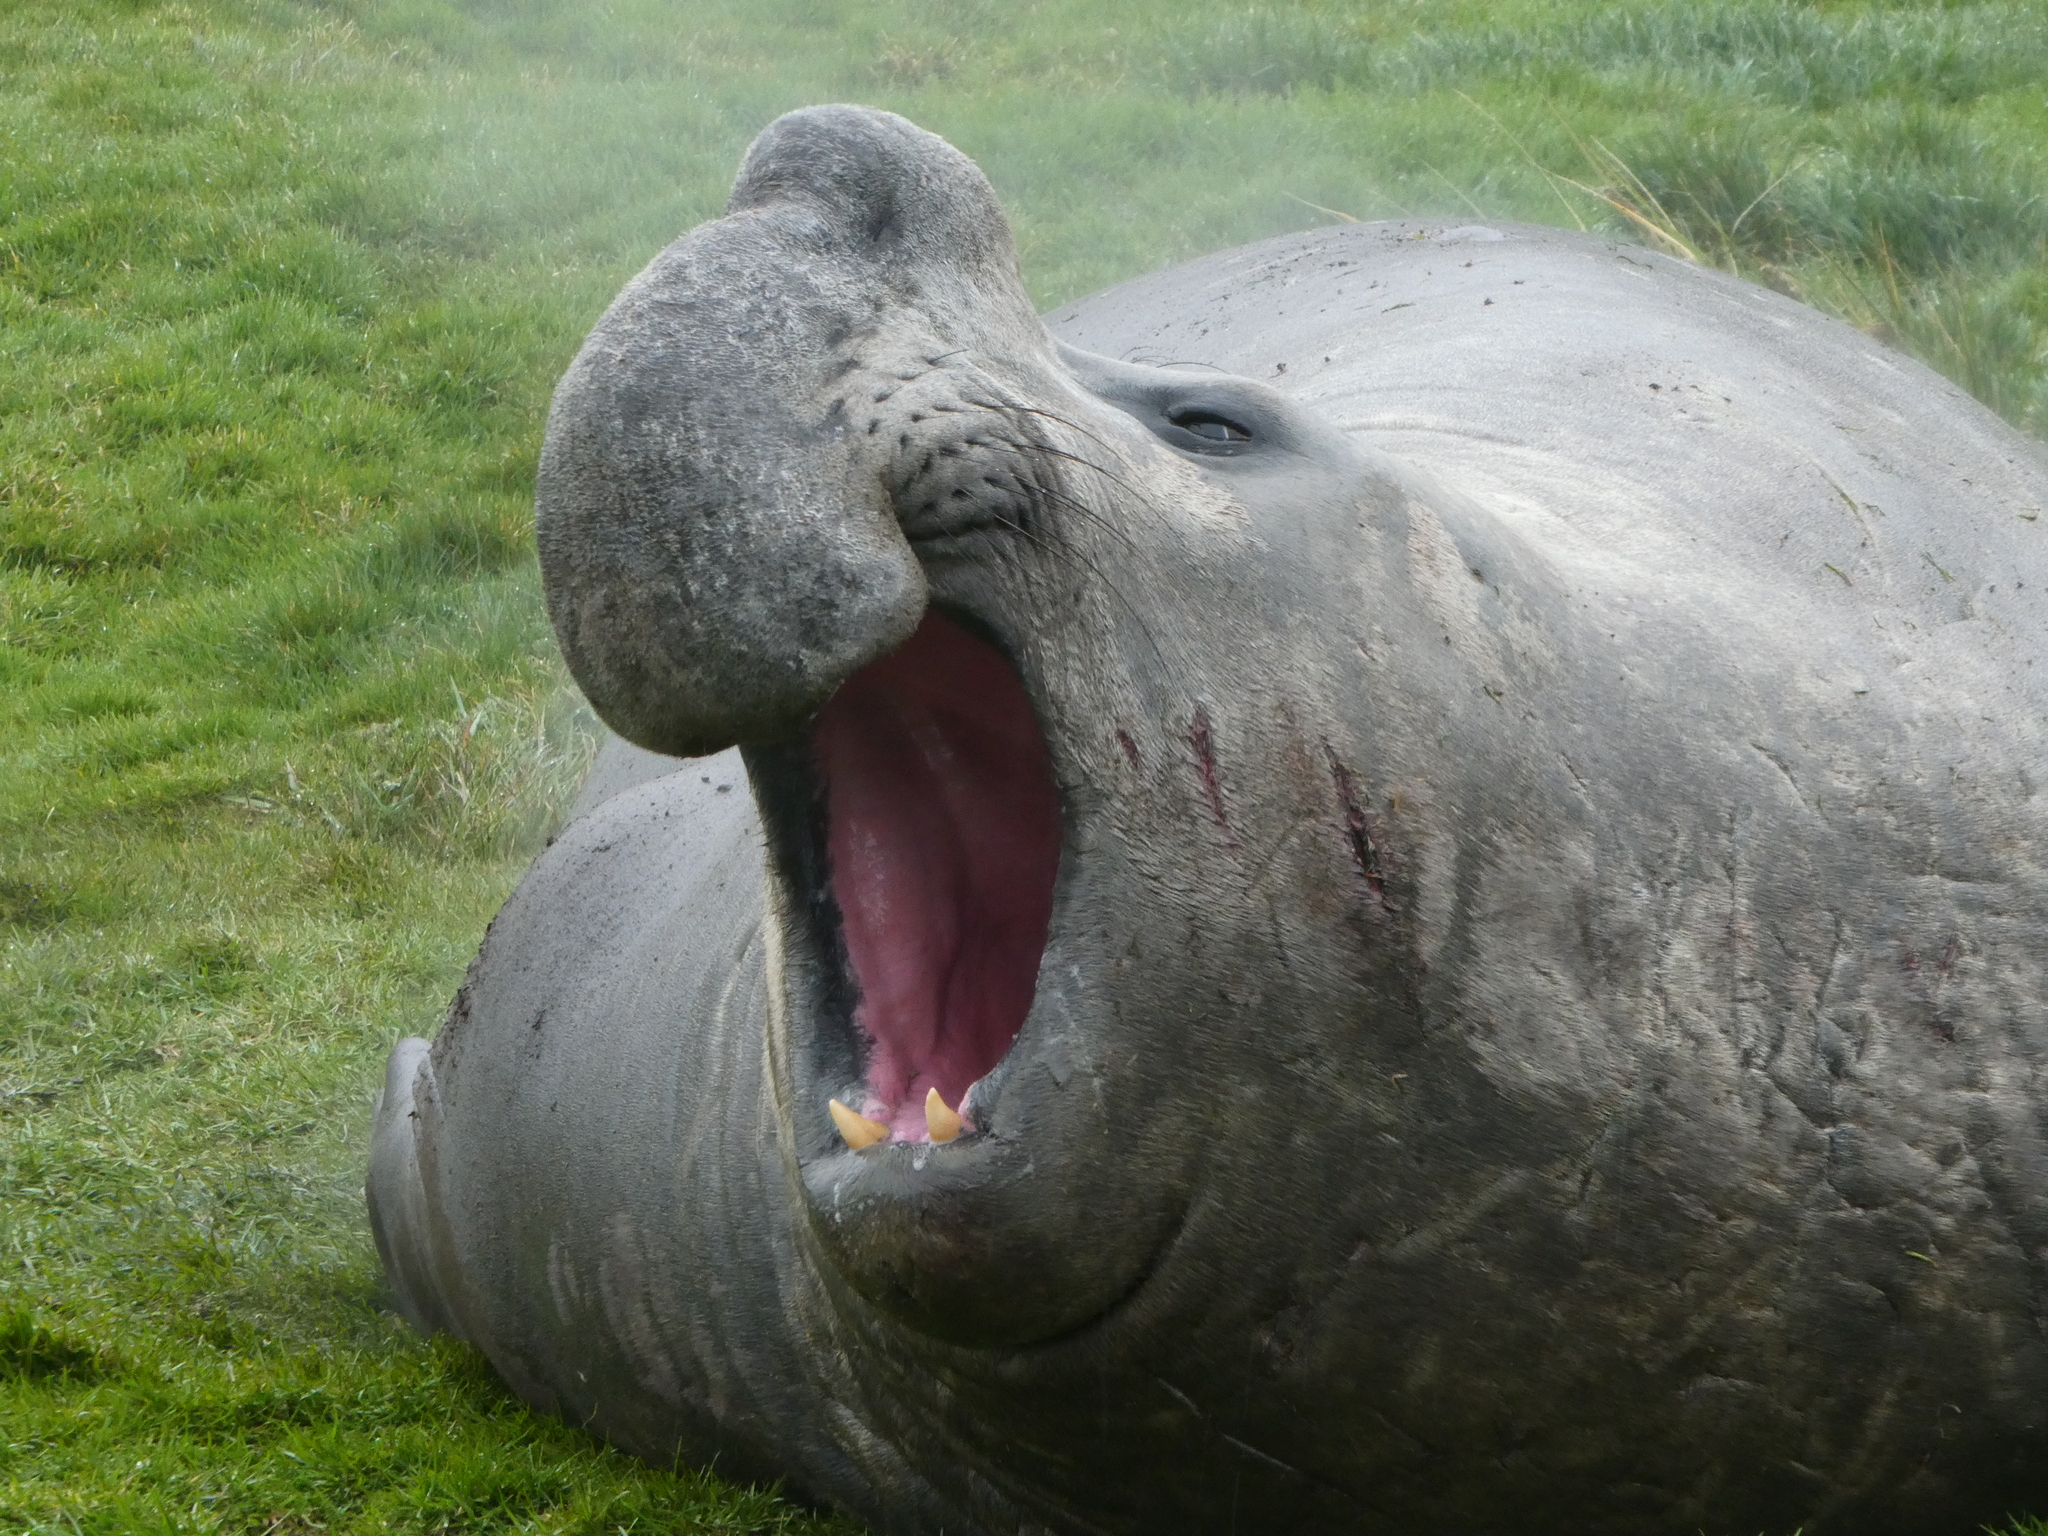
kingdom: Animalia
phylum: Chordata
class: Mammalia
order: Carnivora
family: Phocidae
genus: Mirounga
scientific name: Mirounga leonina
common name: Southern elephant seal
